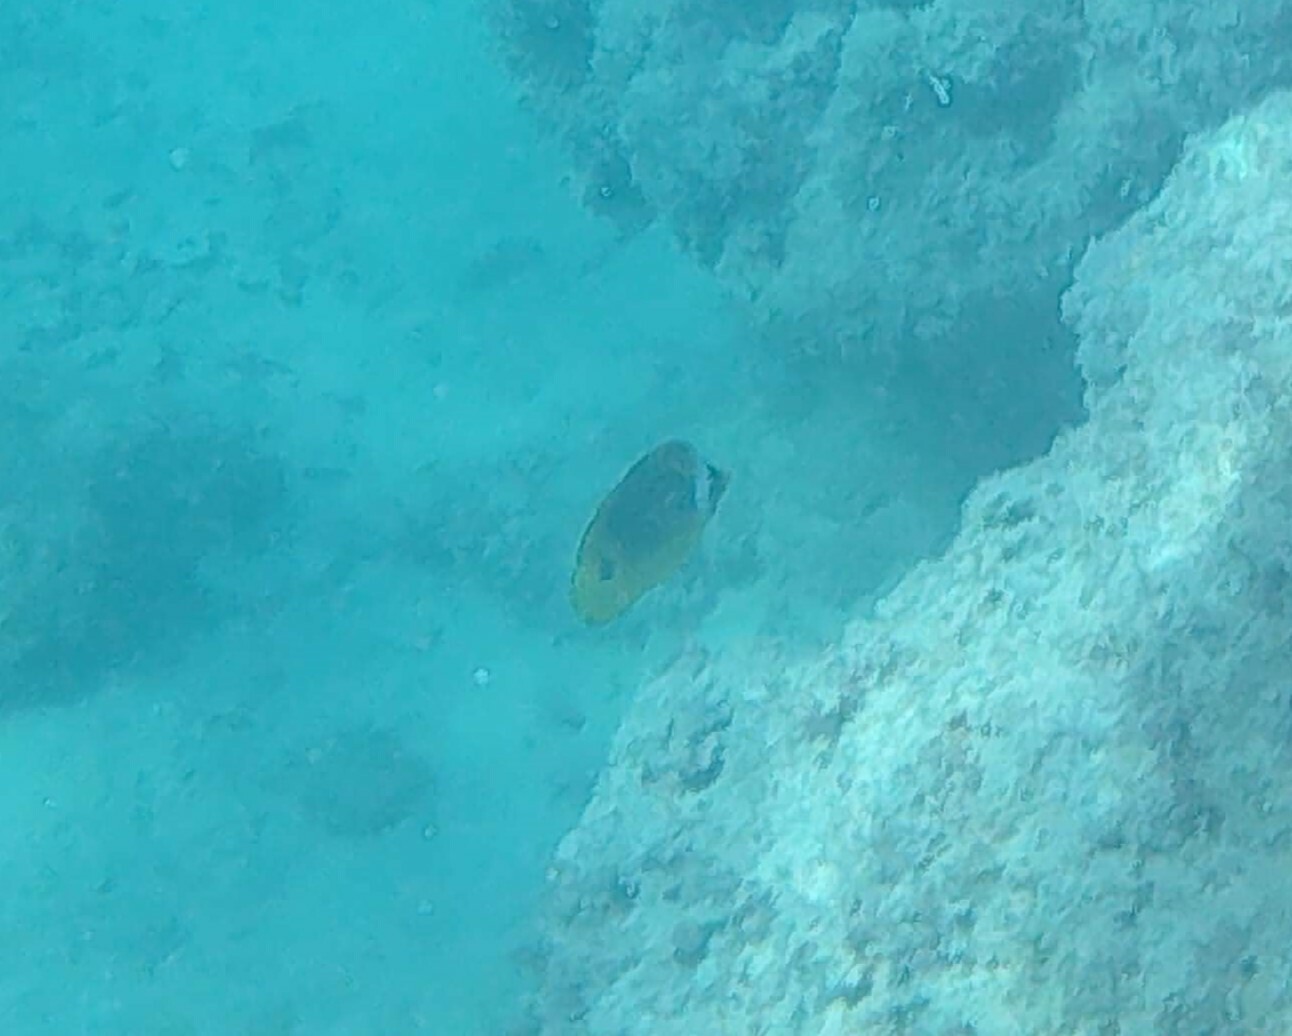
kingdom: Animalia
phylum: Chordata
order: Perciformes
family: Chaetodontidae
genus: Chaetodon
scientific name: Chaetodon lunula
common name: Raccoon butterflyfish
